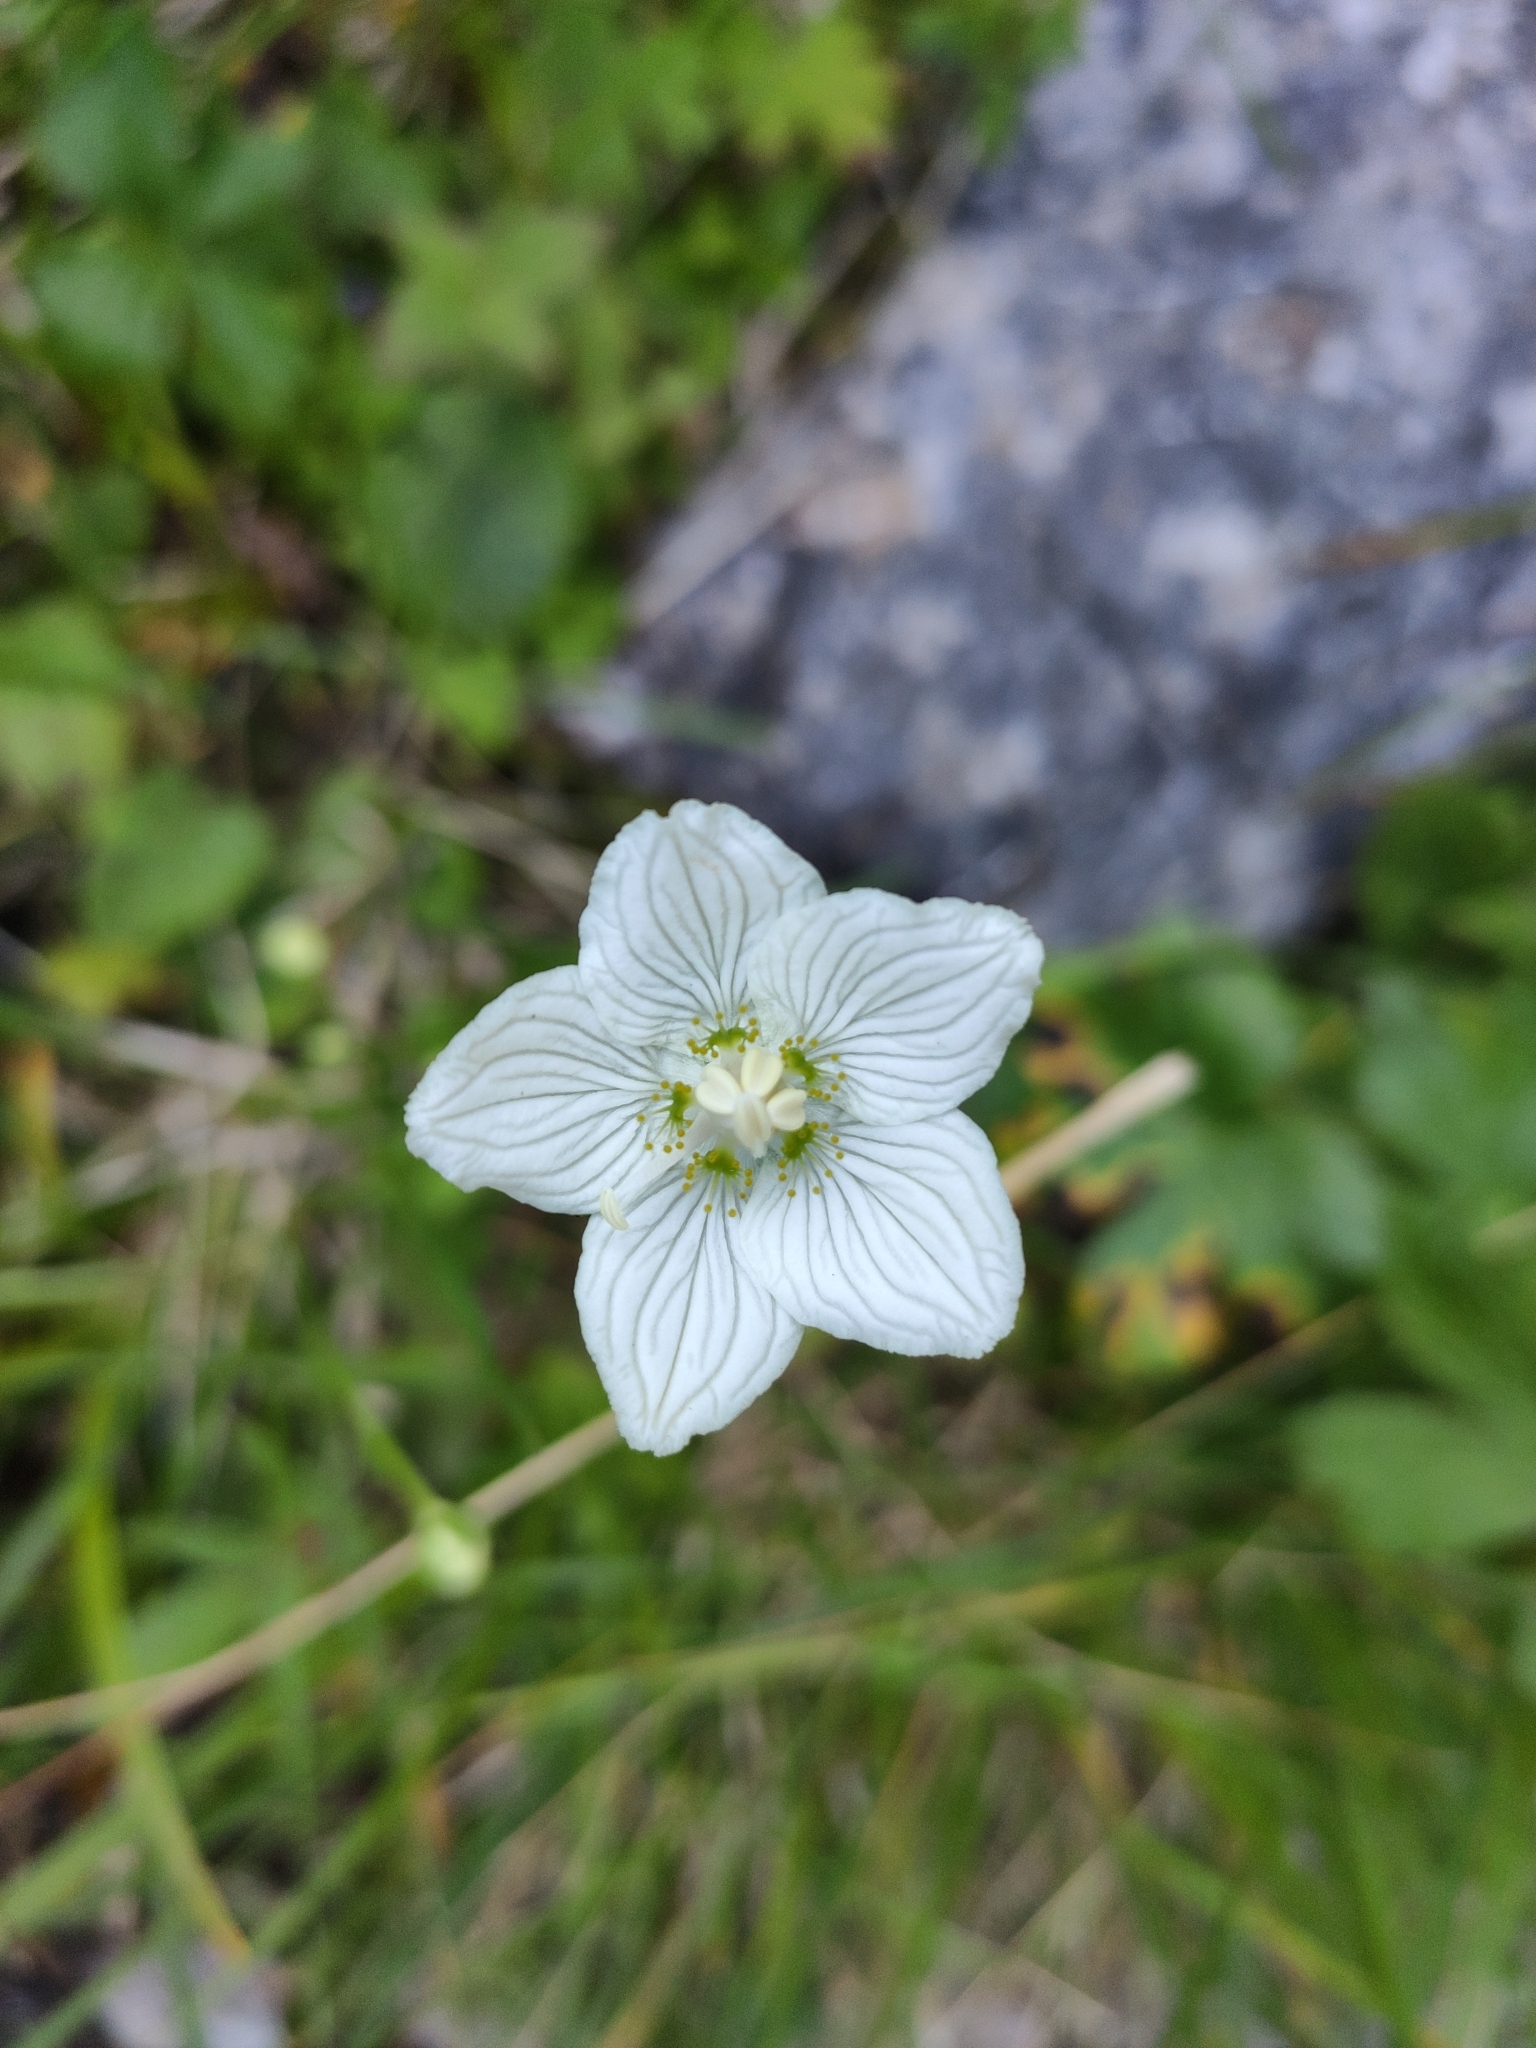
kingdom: Plantae
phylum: Tracheophyta
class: Magnoliopsida
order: Celastrales
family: Parnassiaceae
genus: Parnassia
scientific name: Parnassia palustris
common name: Grass-of-parnassus
